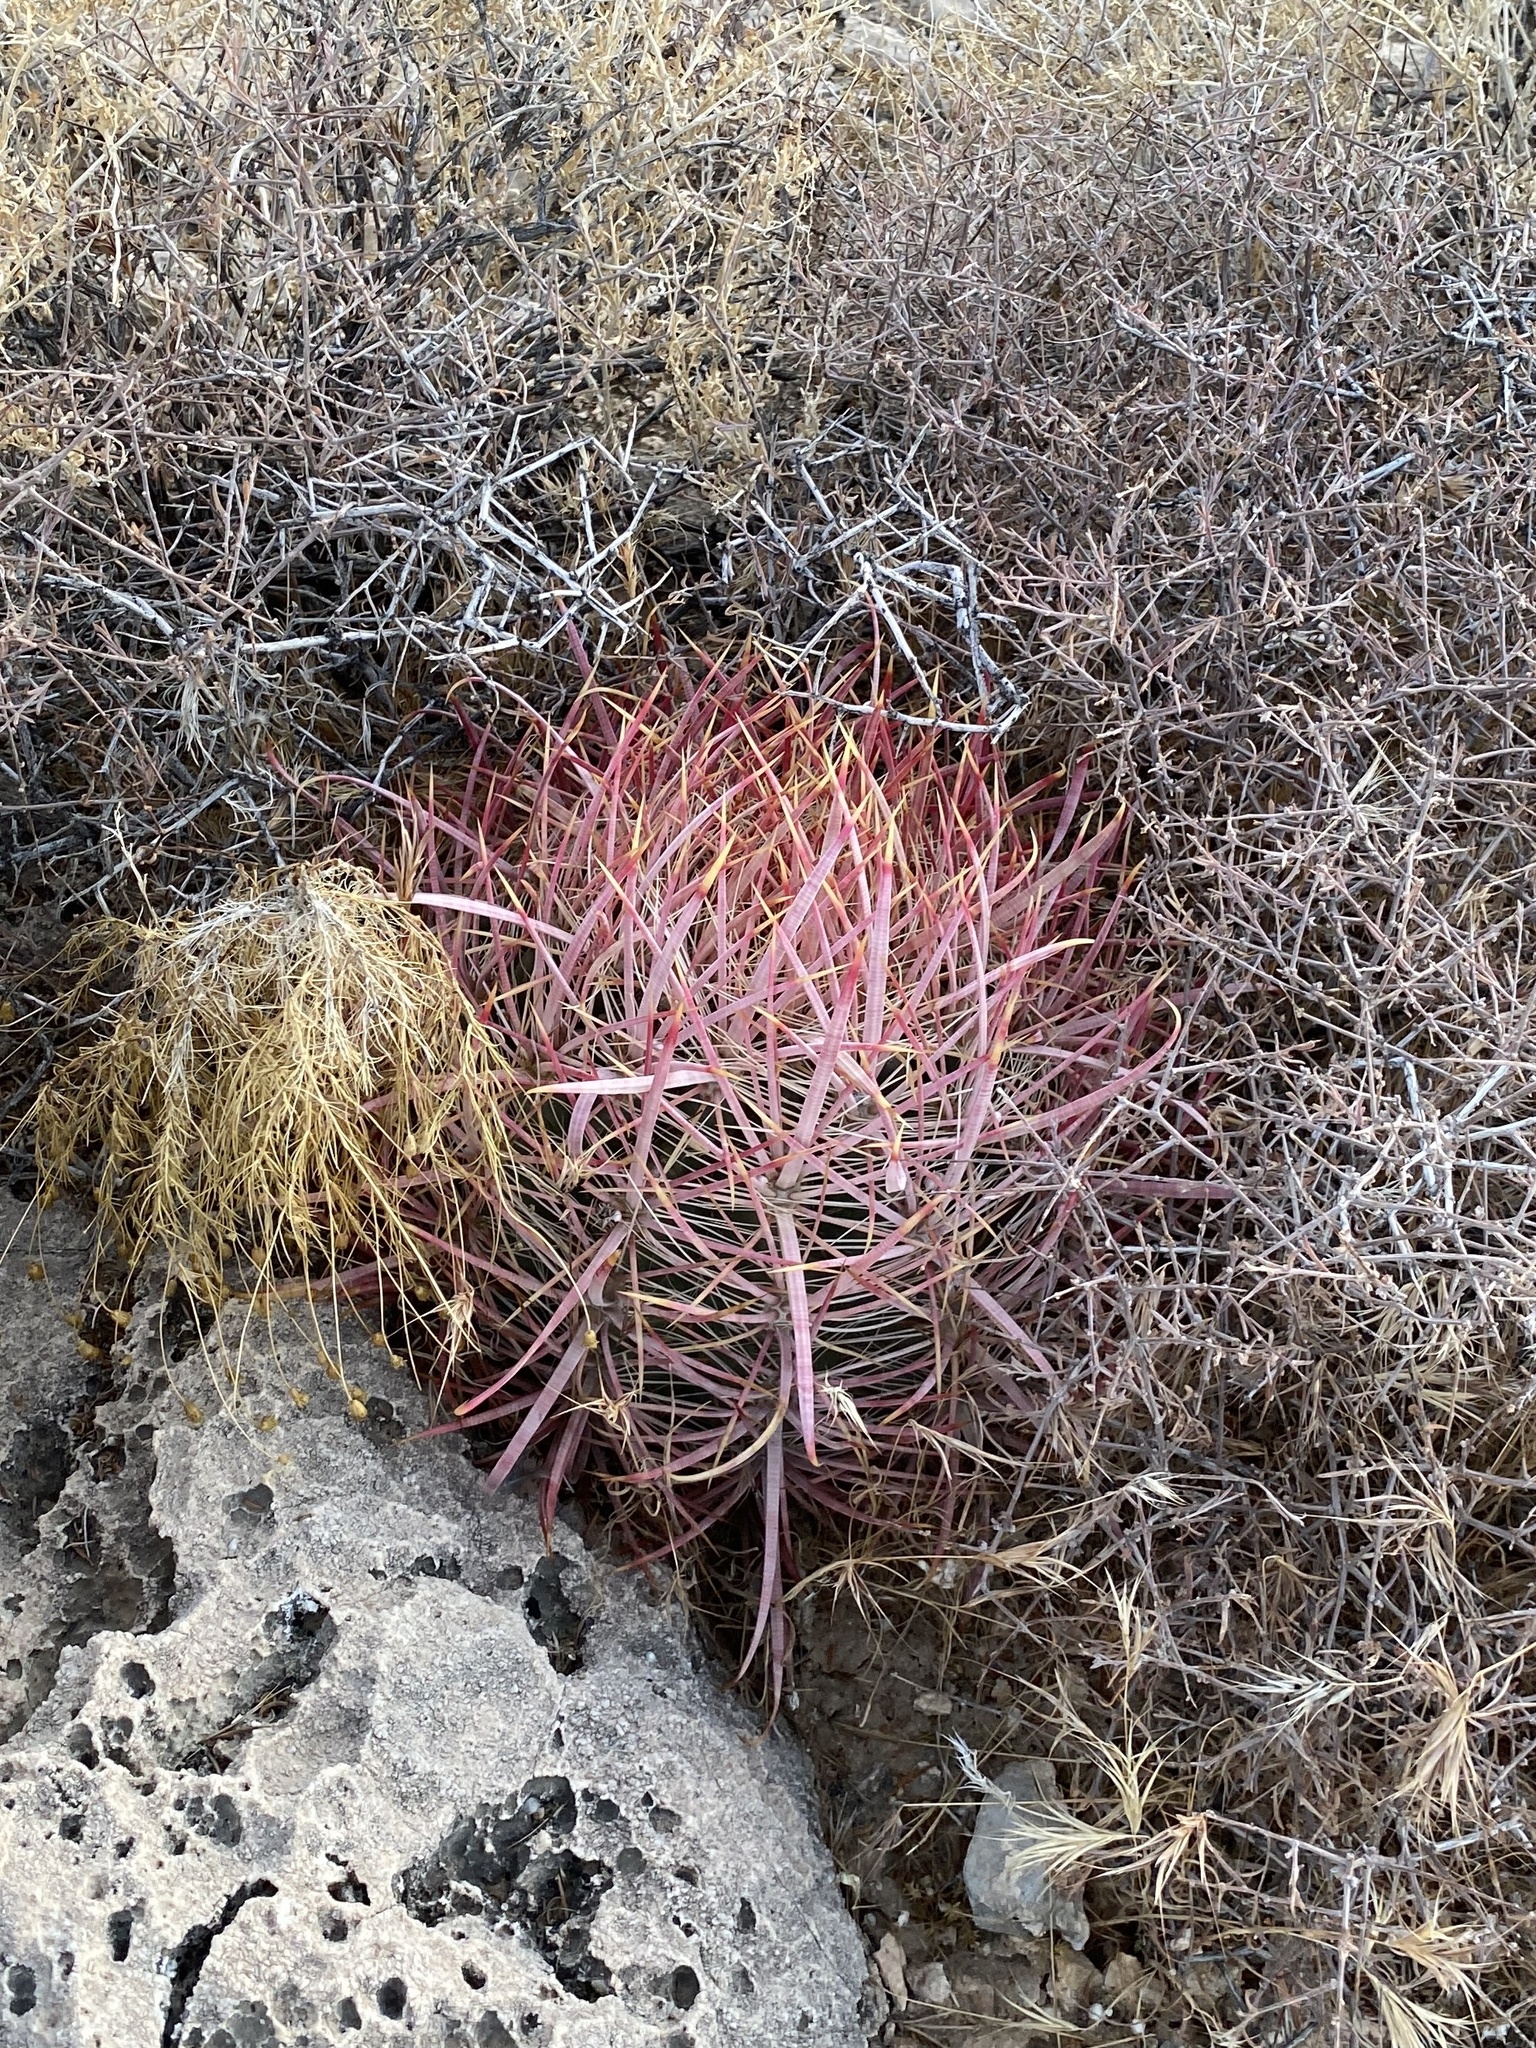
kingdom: Plantae
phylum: Tracheophyta
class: Magnoliopsida
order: Caryophyllales
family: Cactaceae
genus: Ferocactus
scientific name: Ferocactus cylindraceus
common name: California barrel cactus
